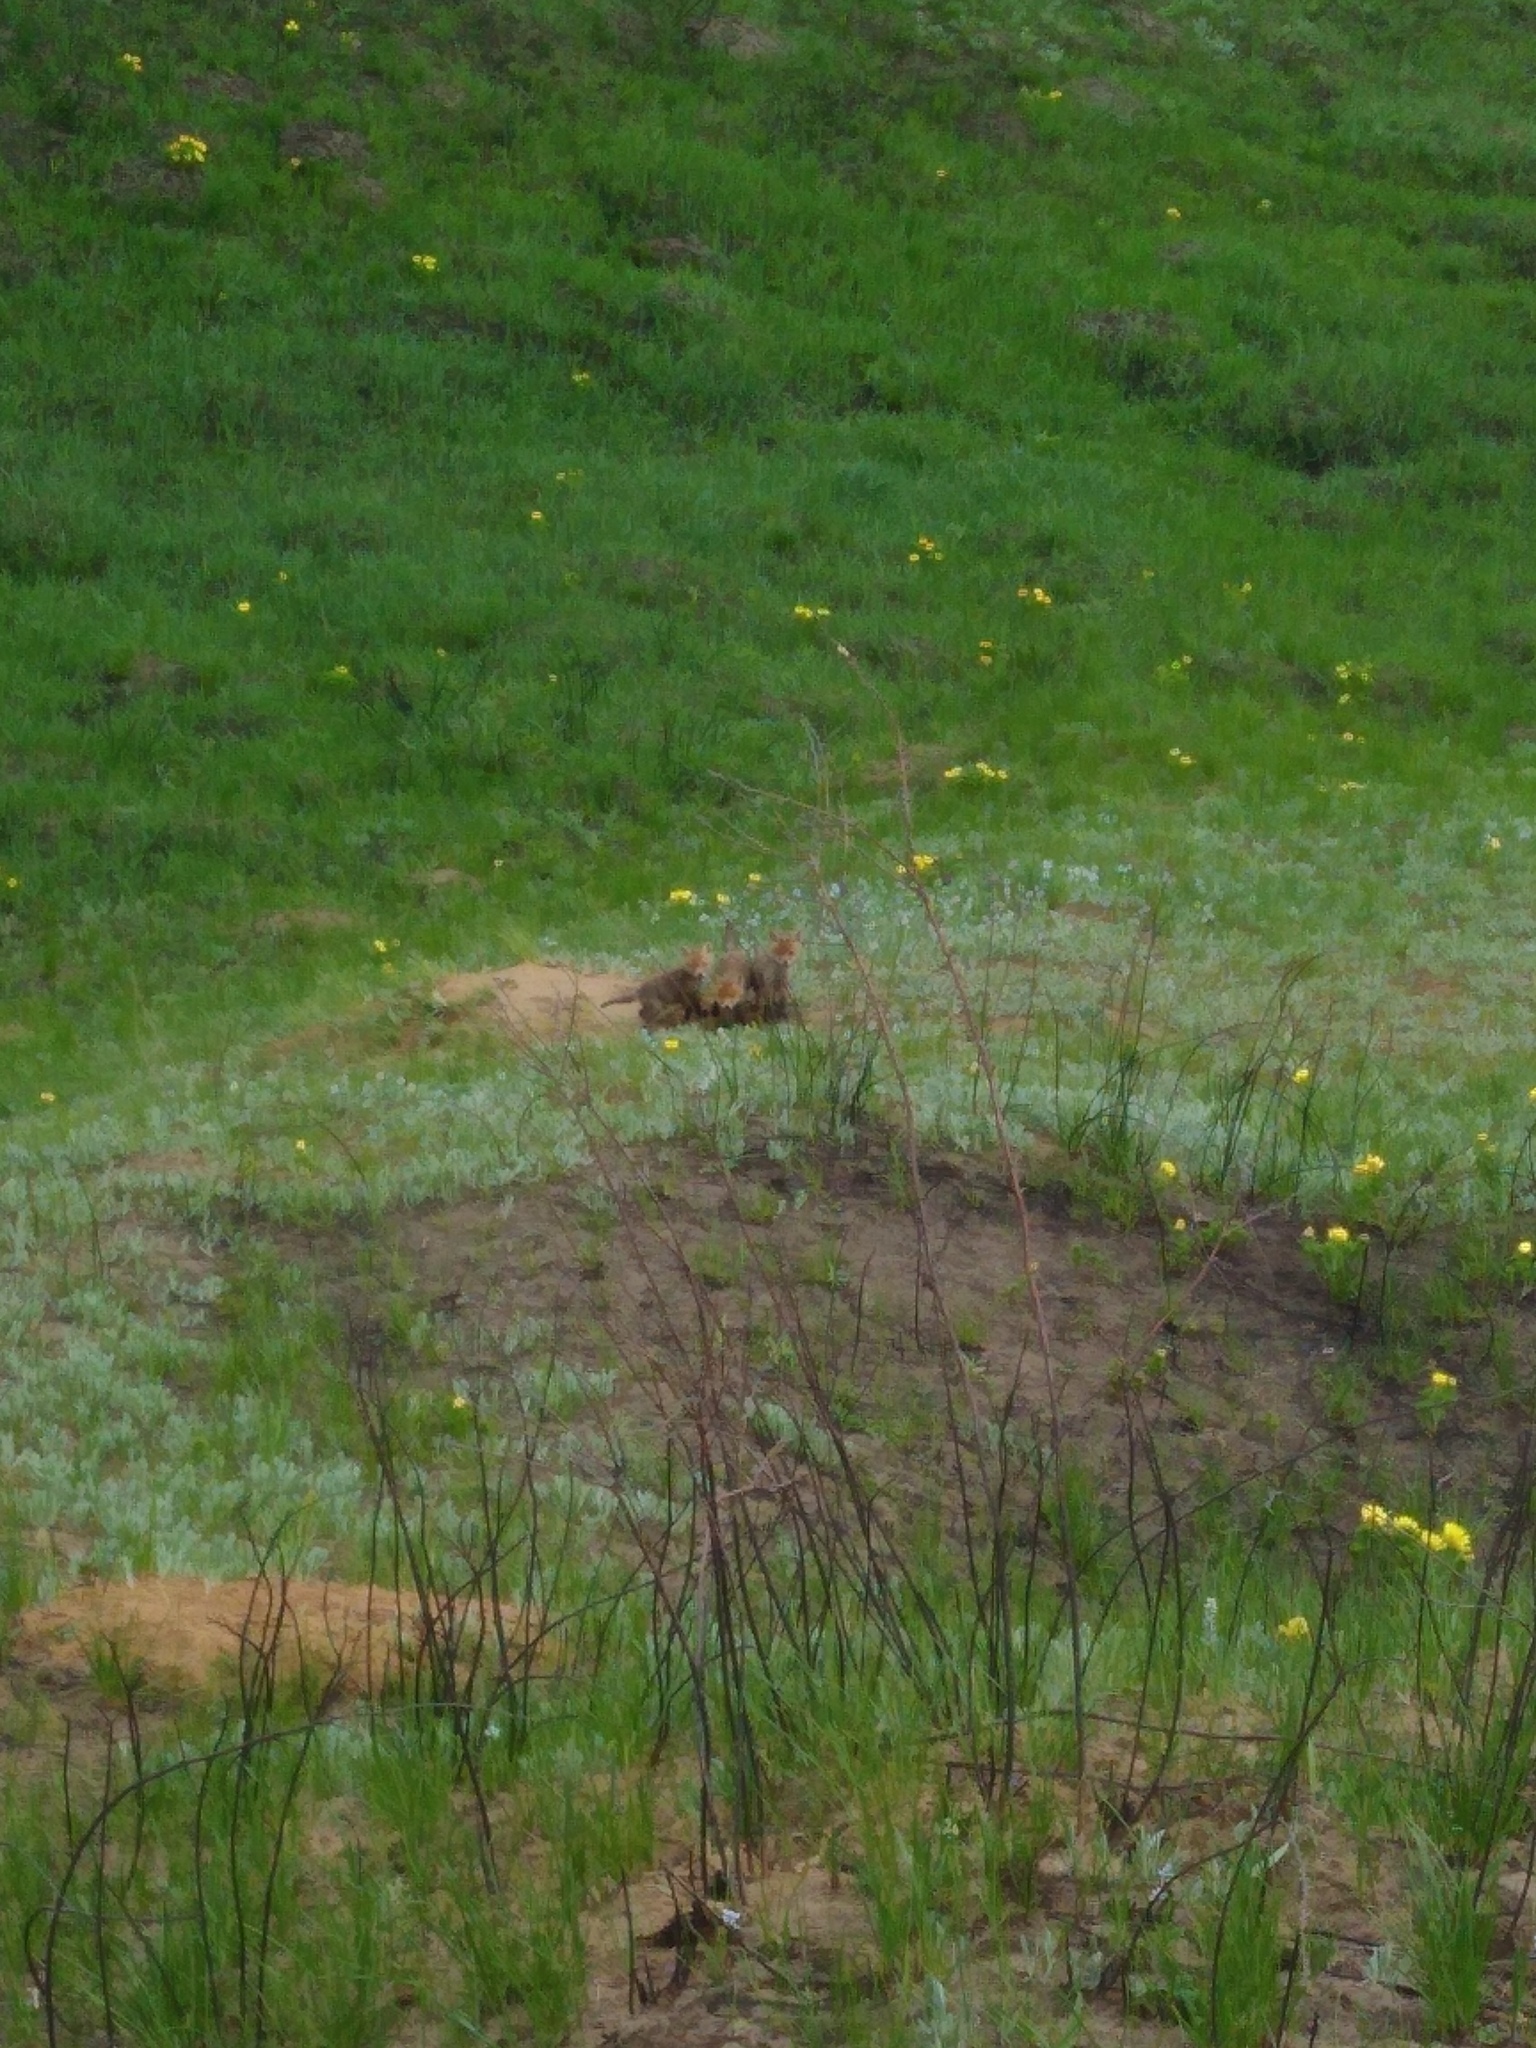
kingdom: Animalia
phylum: Chordata
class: Mammalia
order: Carnivora
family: Canidae
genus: Vulpes
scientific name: Vulpes vulpes
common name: Red fox
